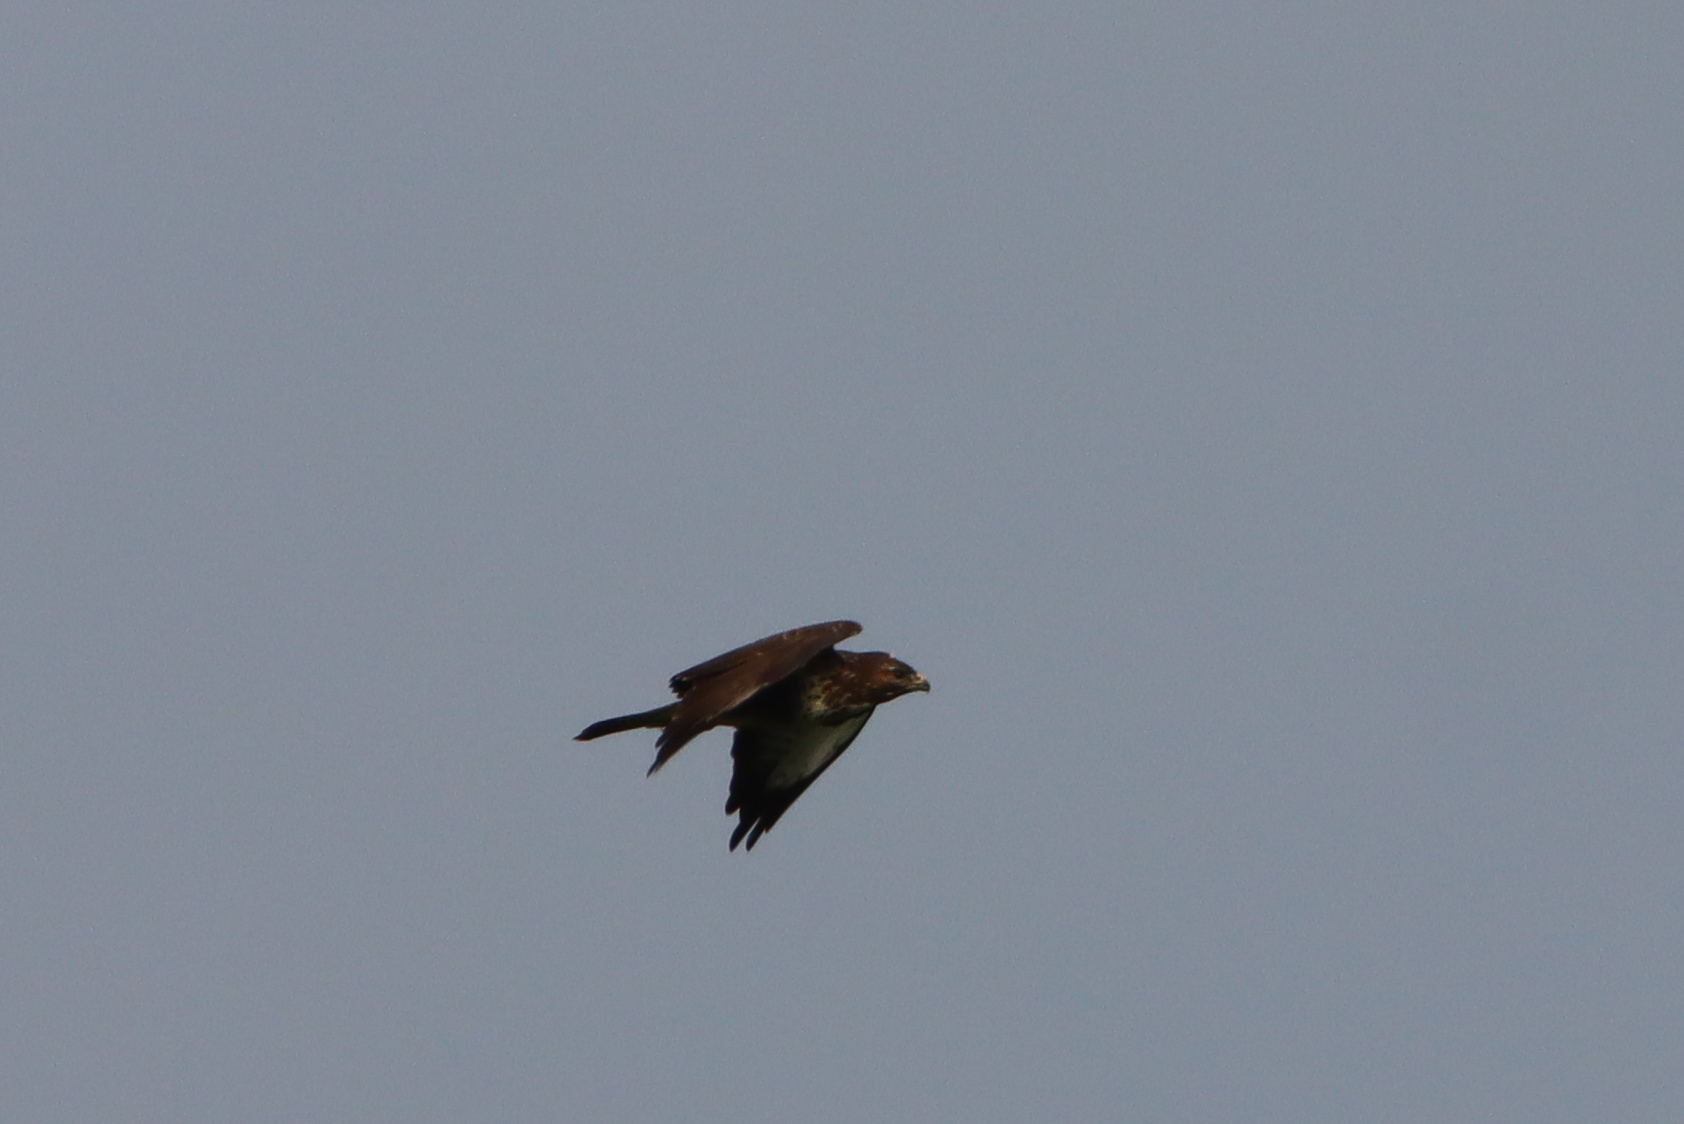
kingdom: Animalia
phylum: Chordata
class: Aves
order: Accipitriformes
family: Accipitridae
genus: Buteo
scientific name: Buteo buteo
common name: Common buzzard
